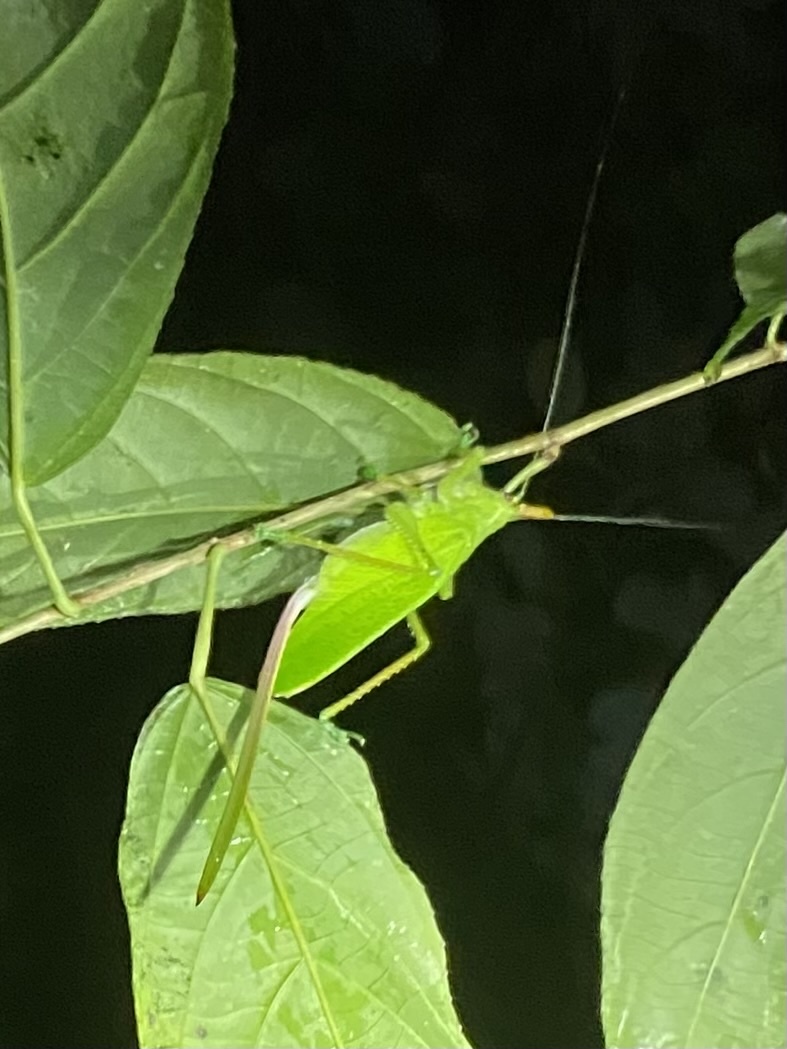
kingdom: Animalia
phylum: Arthropoda
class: Insecta
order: Orthoptera
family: Tettigoniidae
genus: Copiphora
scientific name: Copiphora cultricornis
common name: Yellow-faced spear bearer
